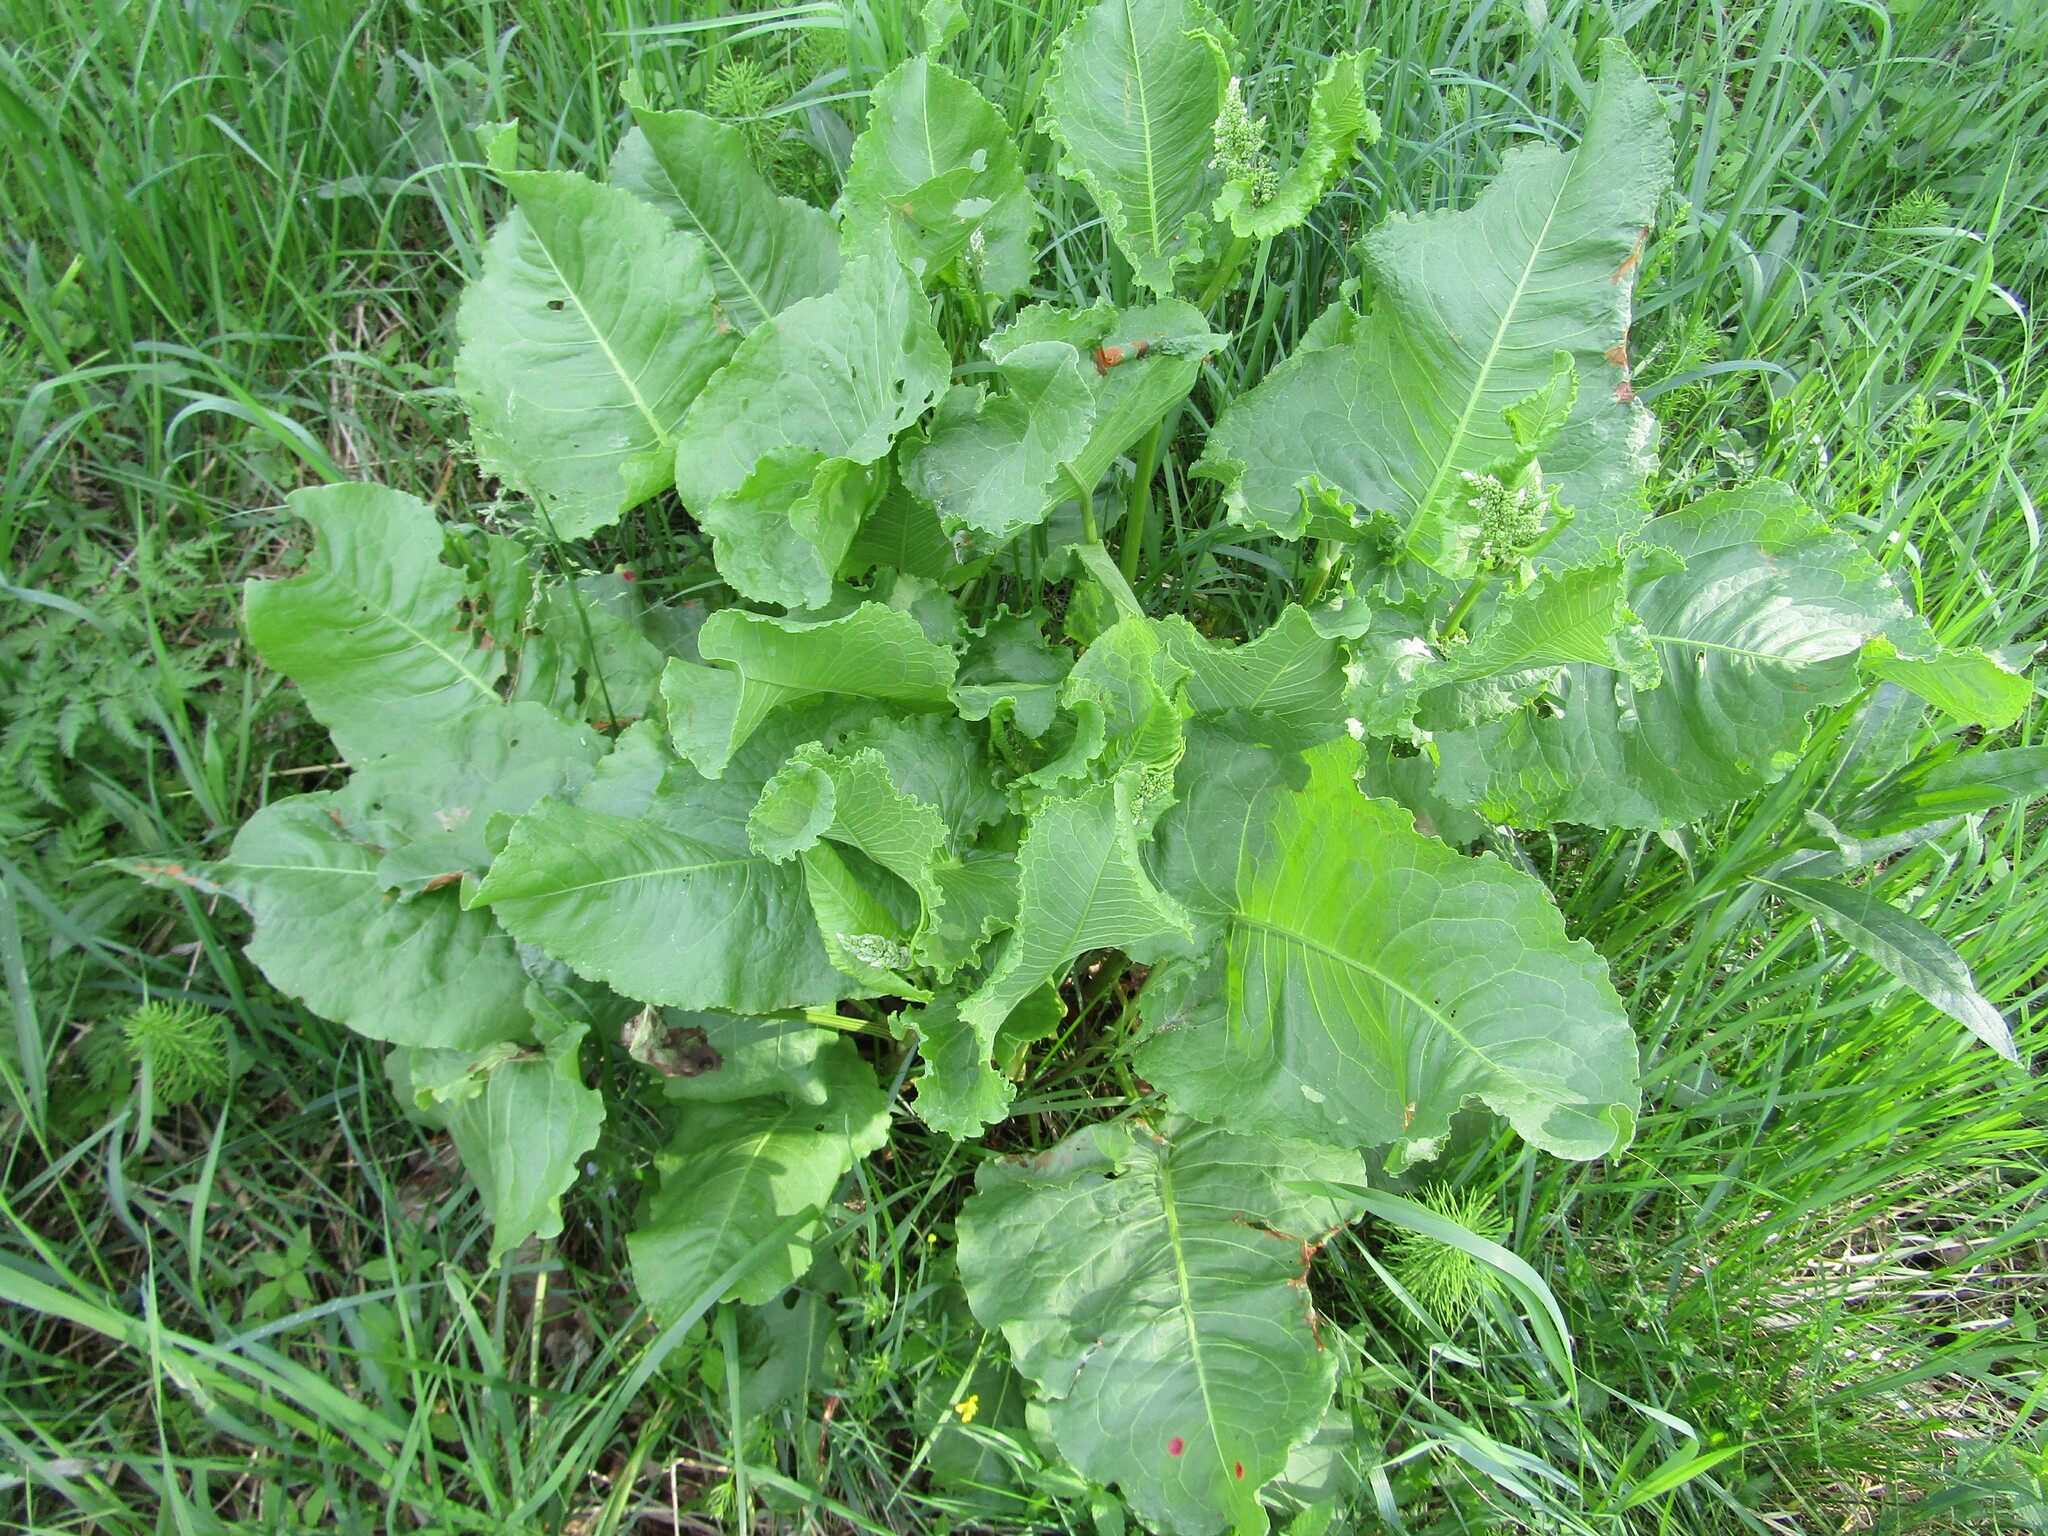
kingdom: Plantae
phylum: Tracheophyta
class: Magnoliopsida
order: Caryophyllales
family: Polygonaceae
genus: Rumex
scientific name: Rumex confertus
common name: Russian dock
